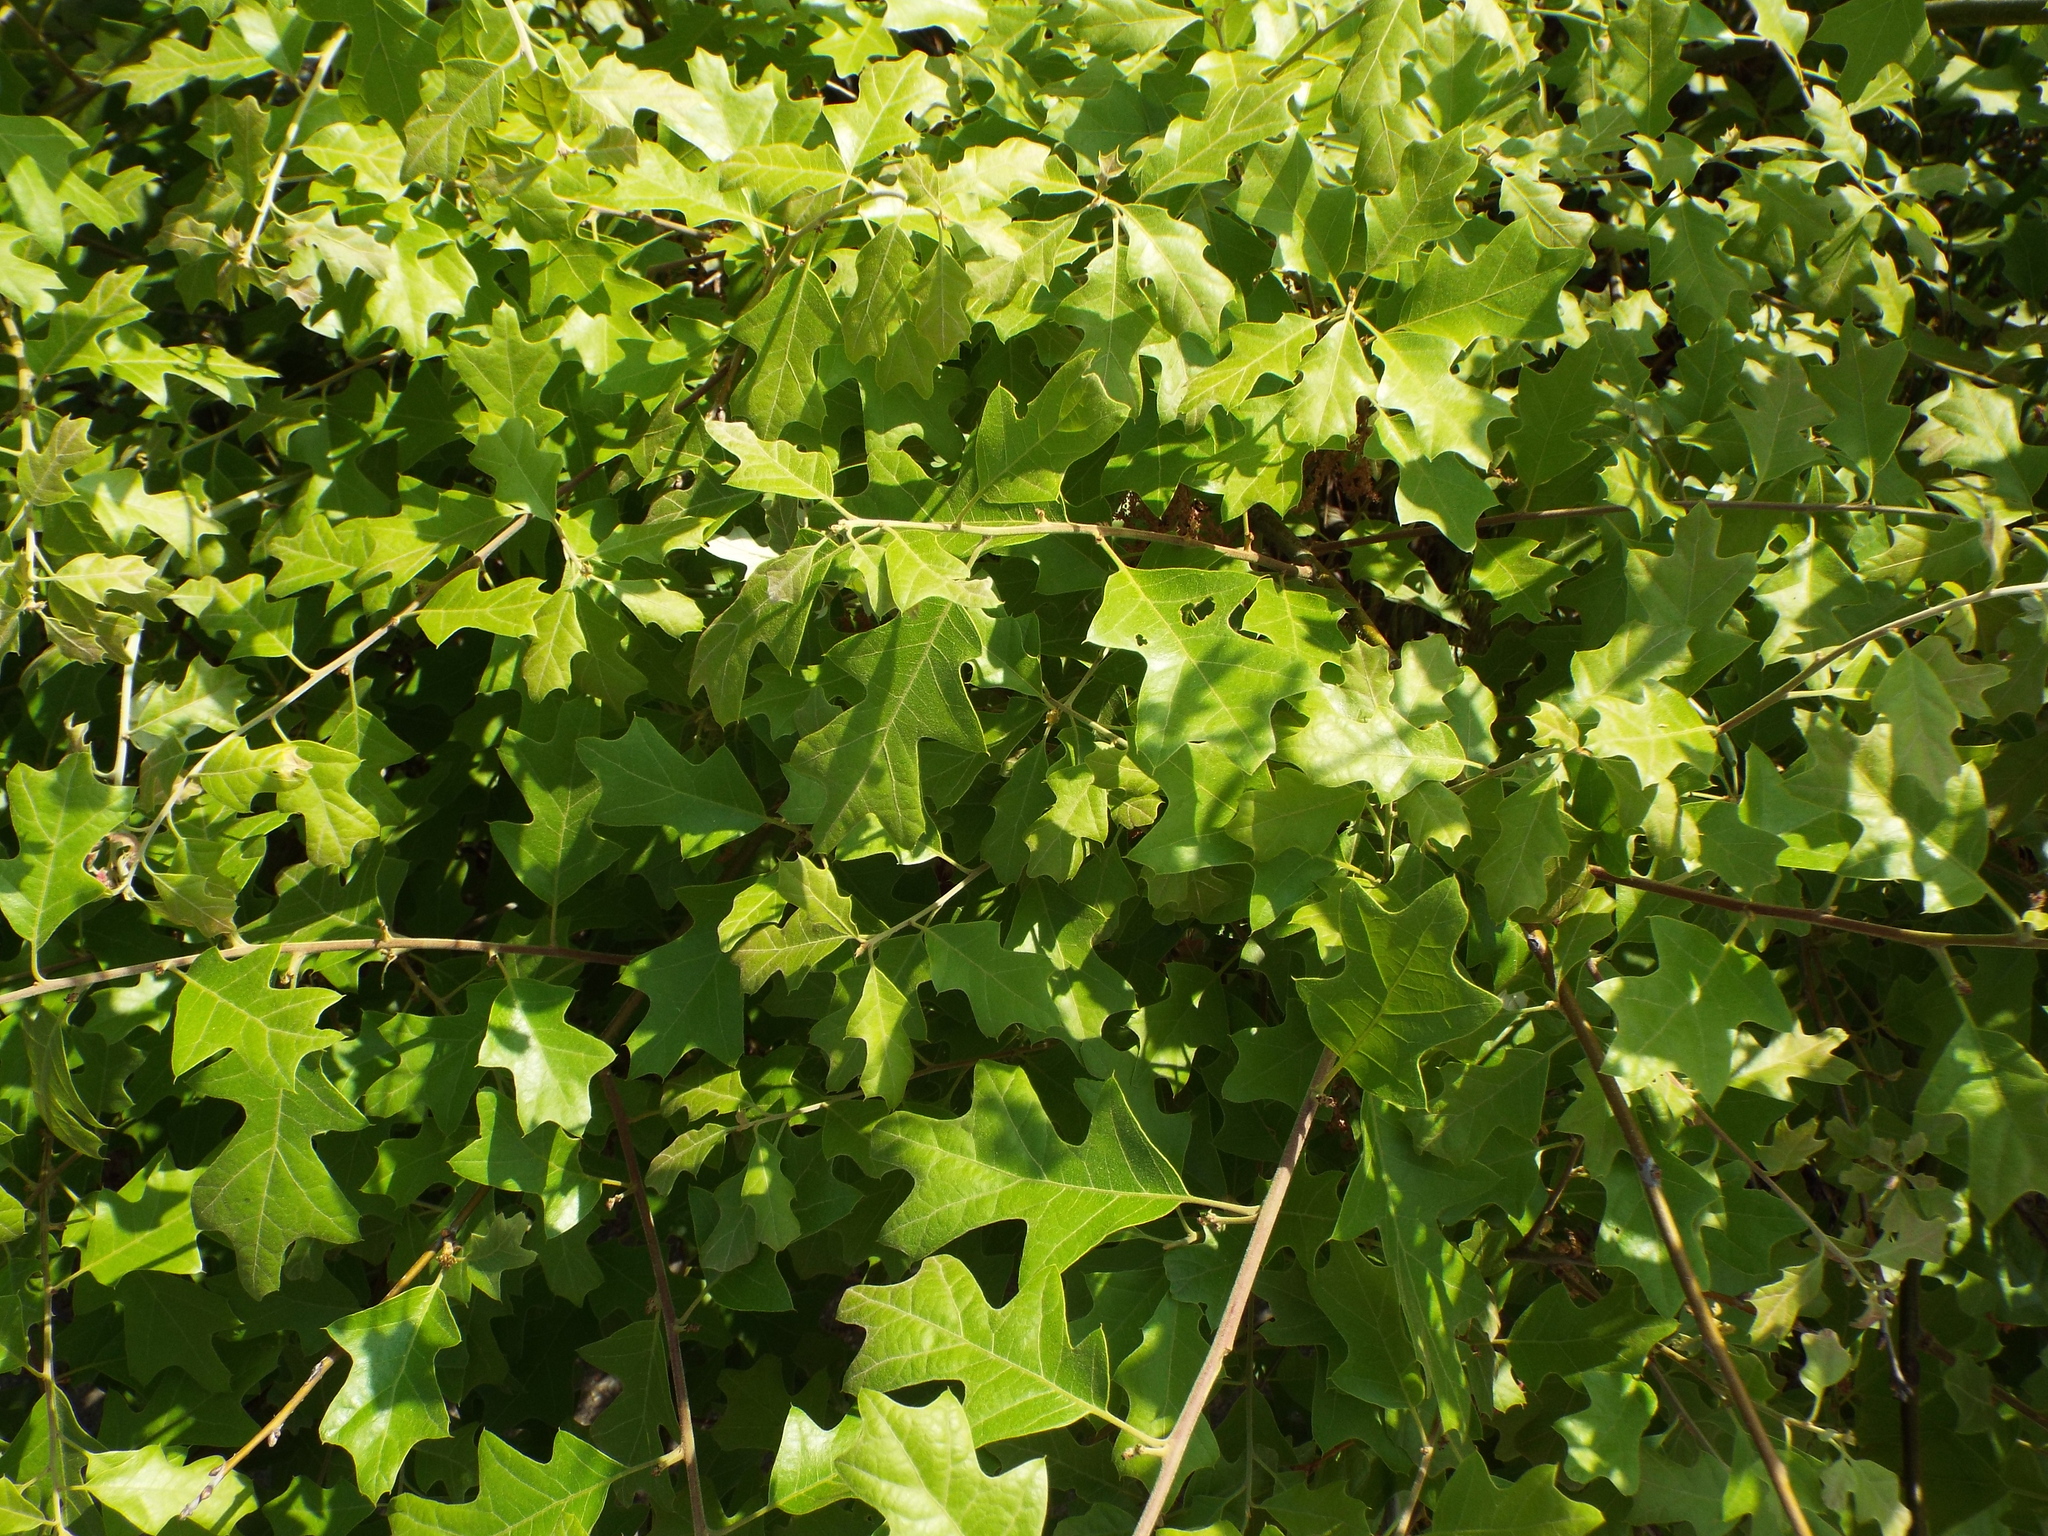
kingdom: Plantae
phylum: Tracheophyta
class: Magnoliopsida
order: Fagales
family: Fagaceae
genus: Quercus
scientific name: Quercus ilicifolia
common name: Bear oak
